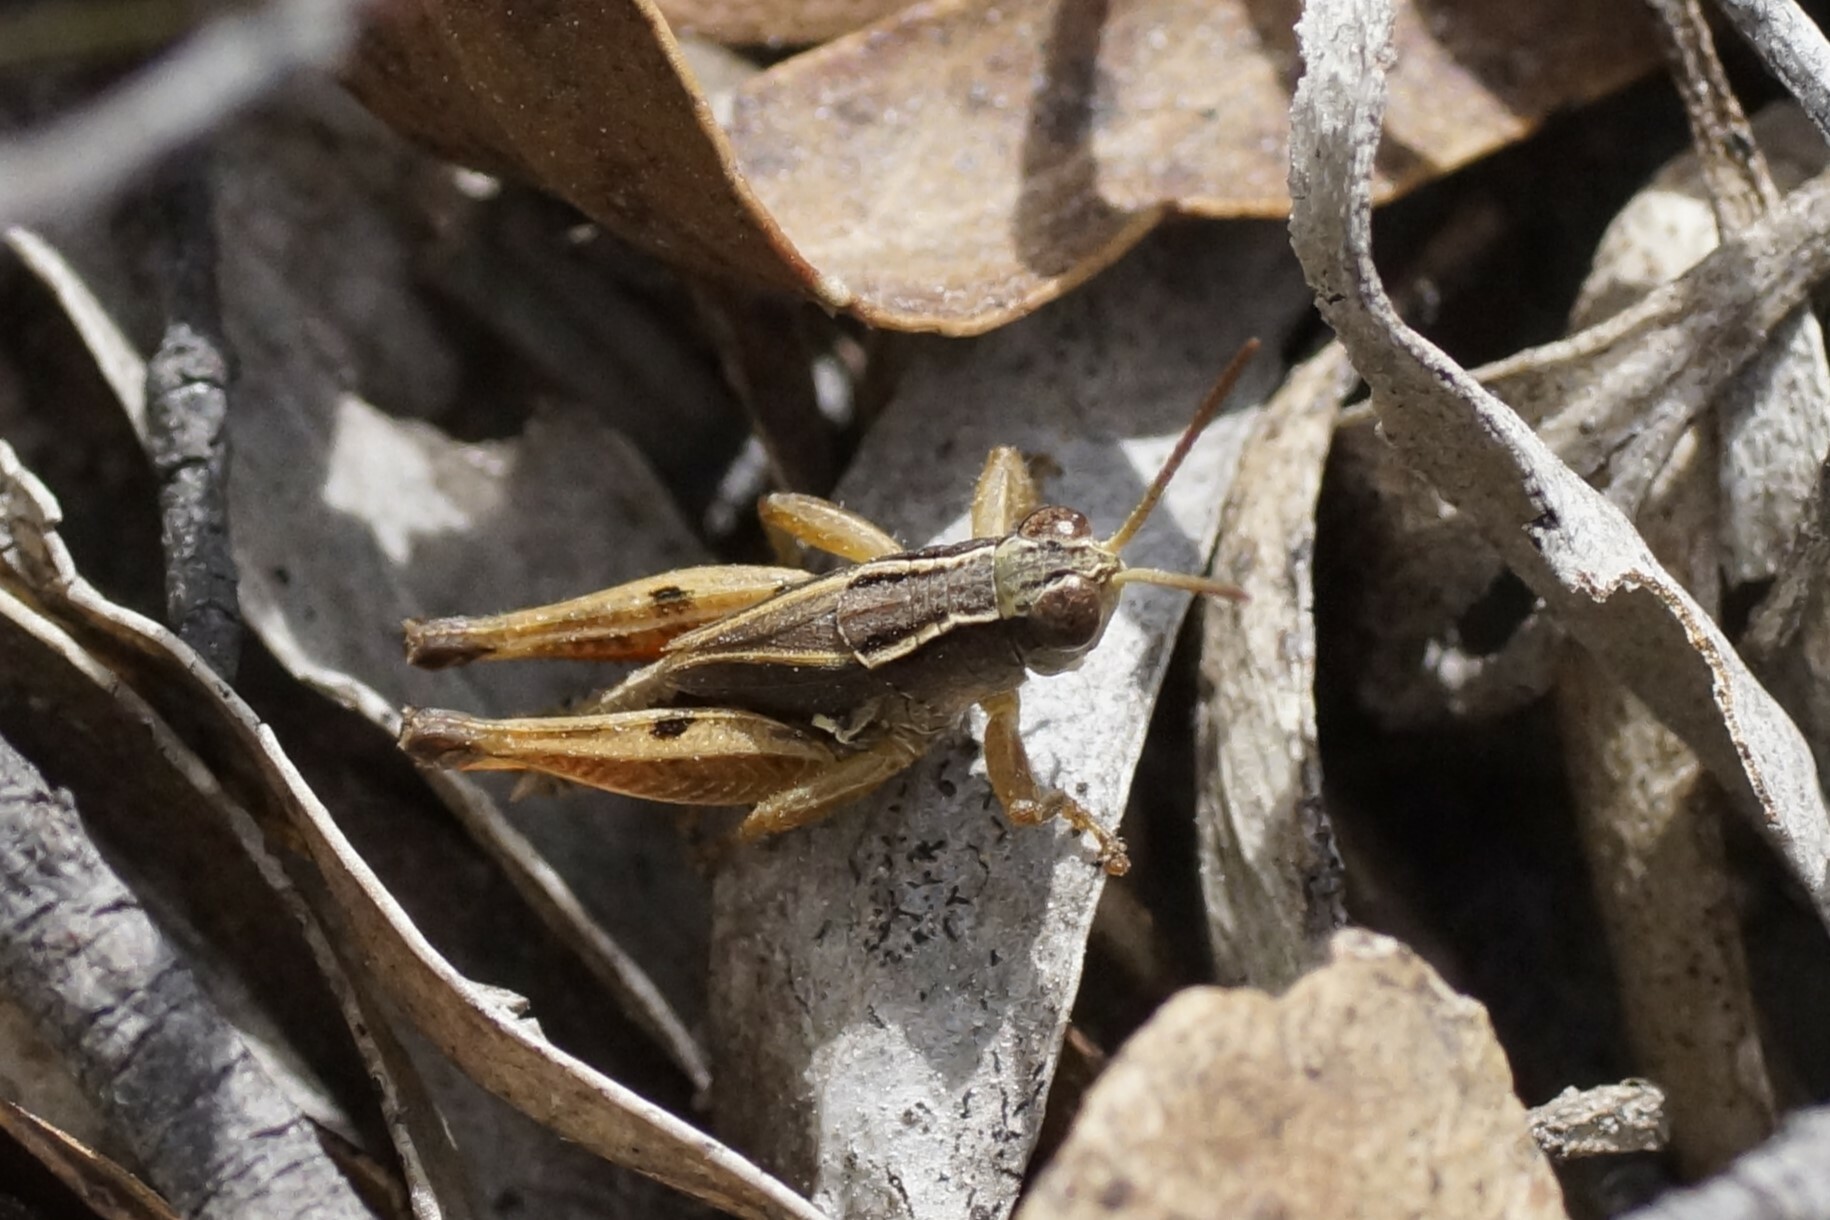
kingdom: Animalia
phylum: Arthropoda
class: Insecta
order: Orthoptera
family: Acrididae
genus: Phaulacridium
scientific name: Phaulacridium vittatum
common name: Wingless grasshopper
